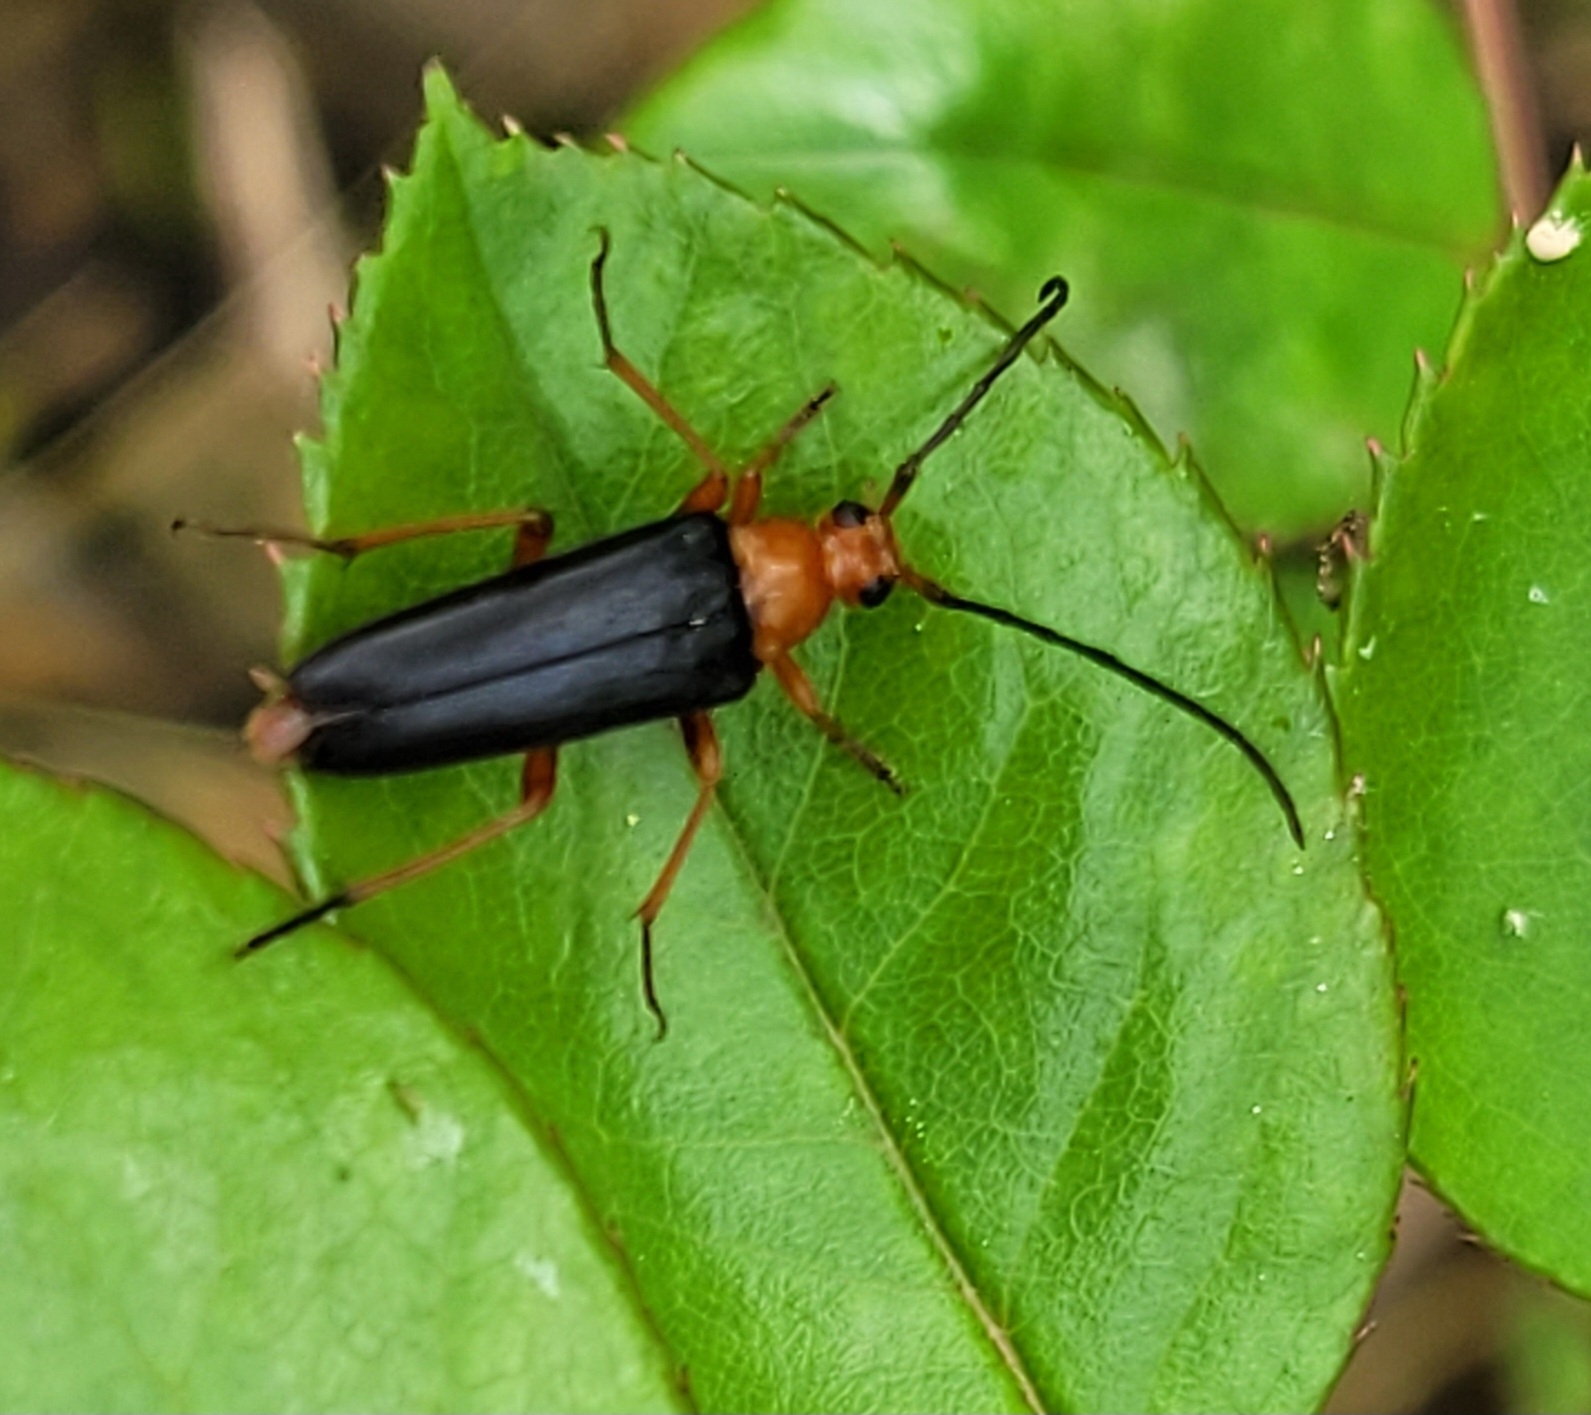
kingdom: Animalia
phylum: Arthropoda
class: Insecta
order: Coleoptera
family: Cerambycidae
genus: Pedostrangalia
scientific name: Pedostrangalia revestita
